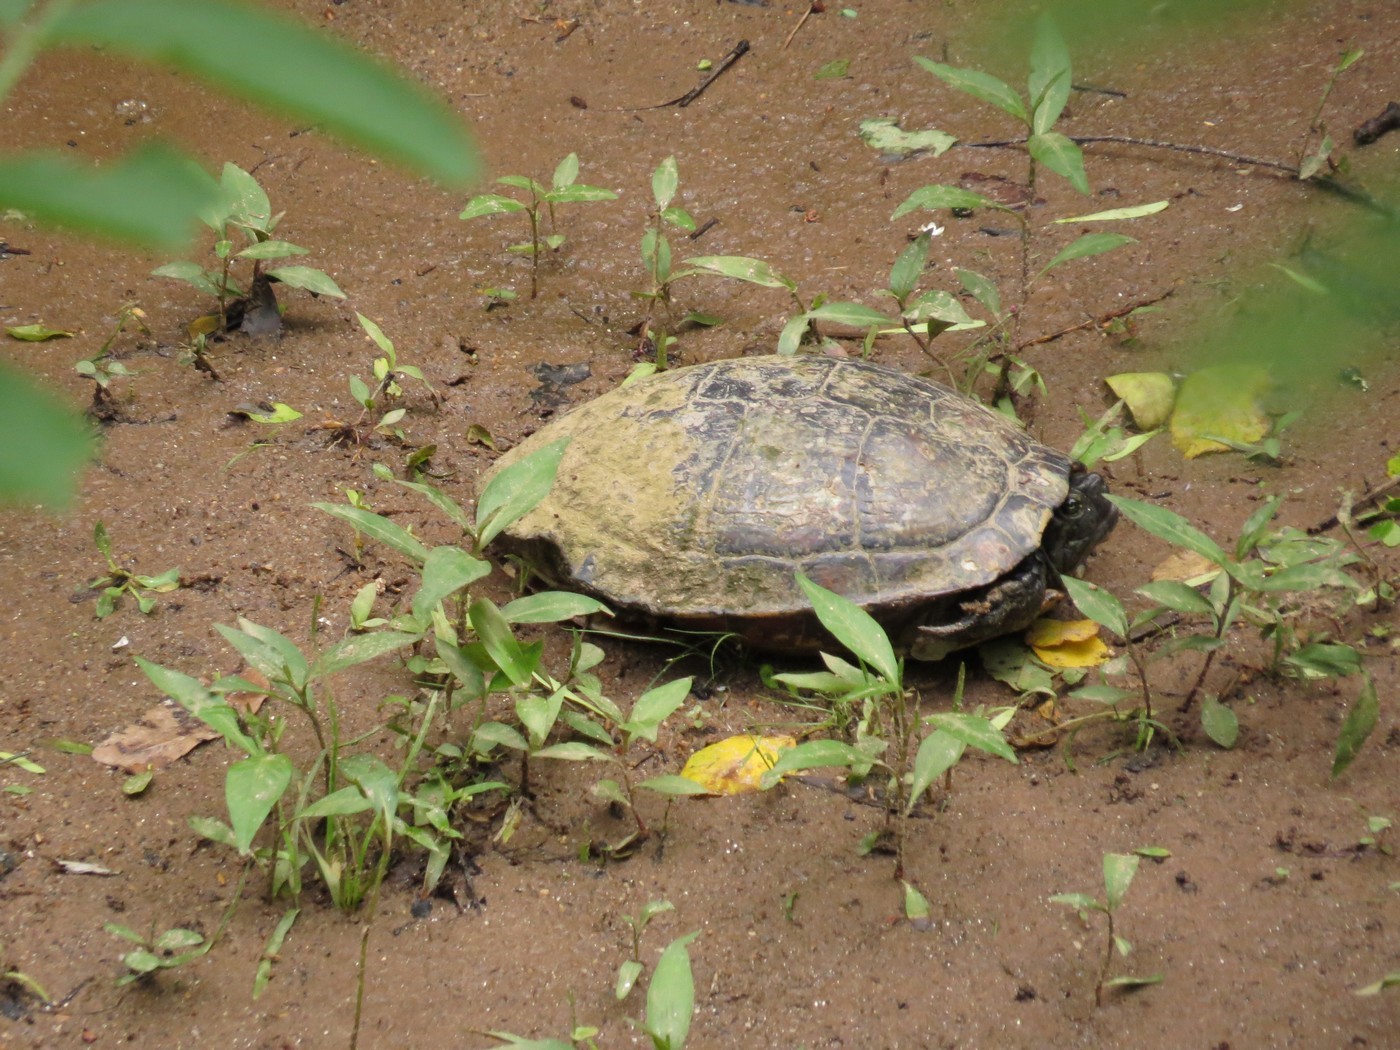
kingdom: Animalia
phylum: Chordata
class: Testudines
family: Emydidae
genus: Trachemys
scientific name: Trachemys scripta
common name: Slider
